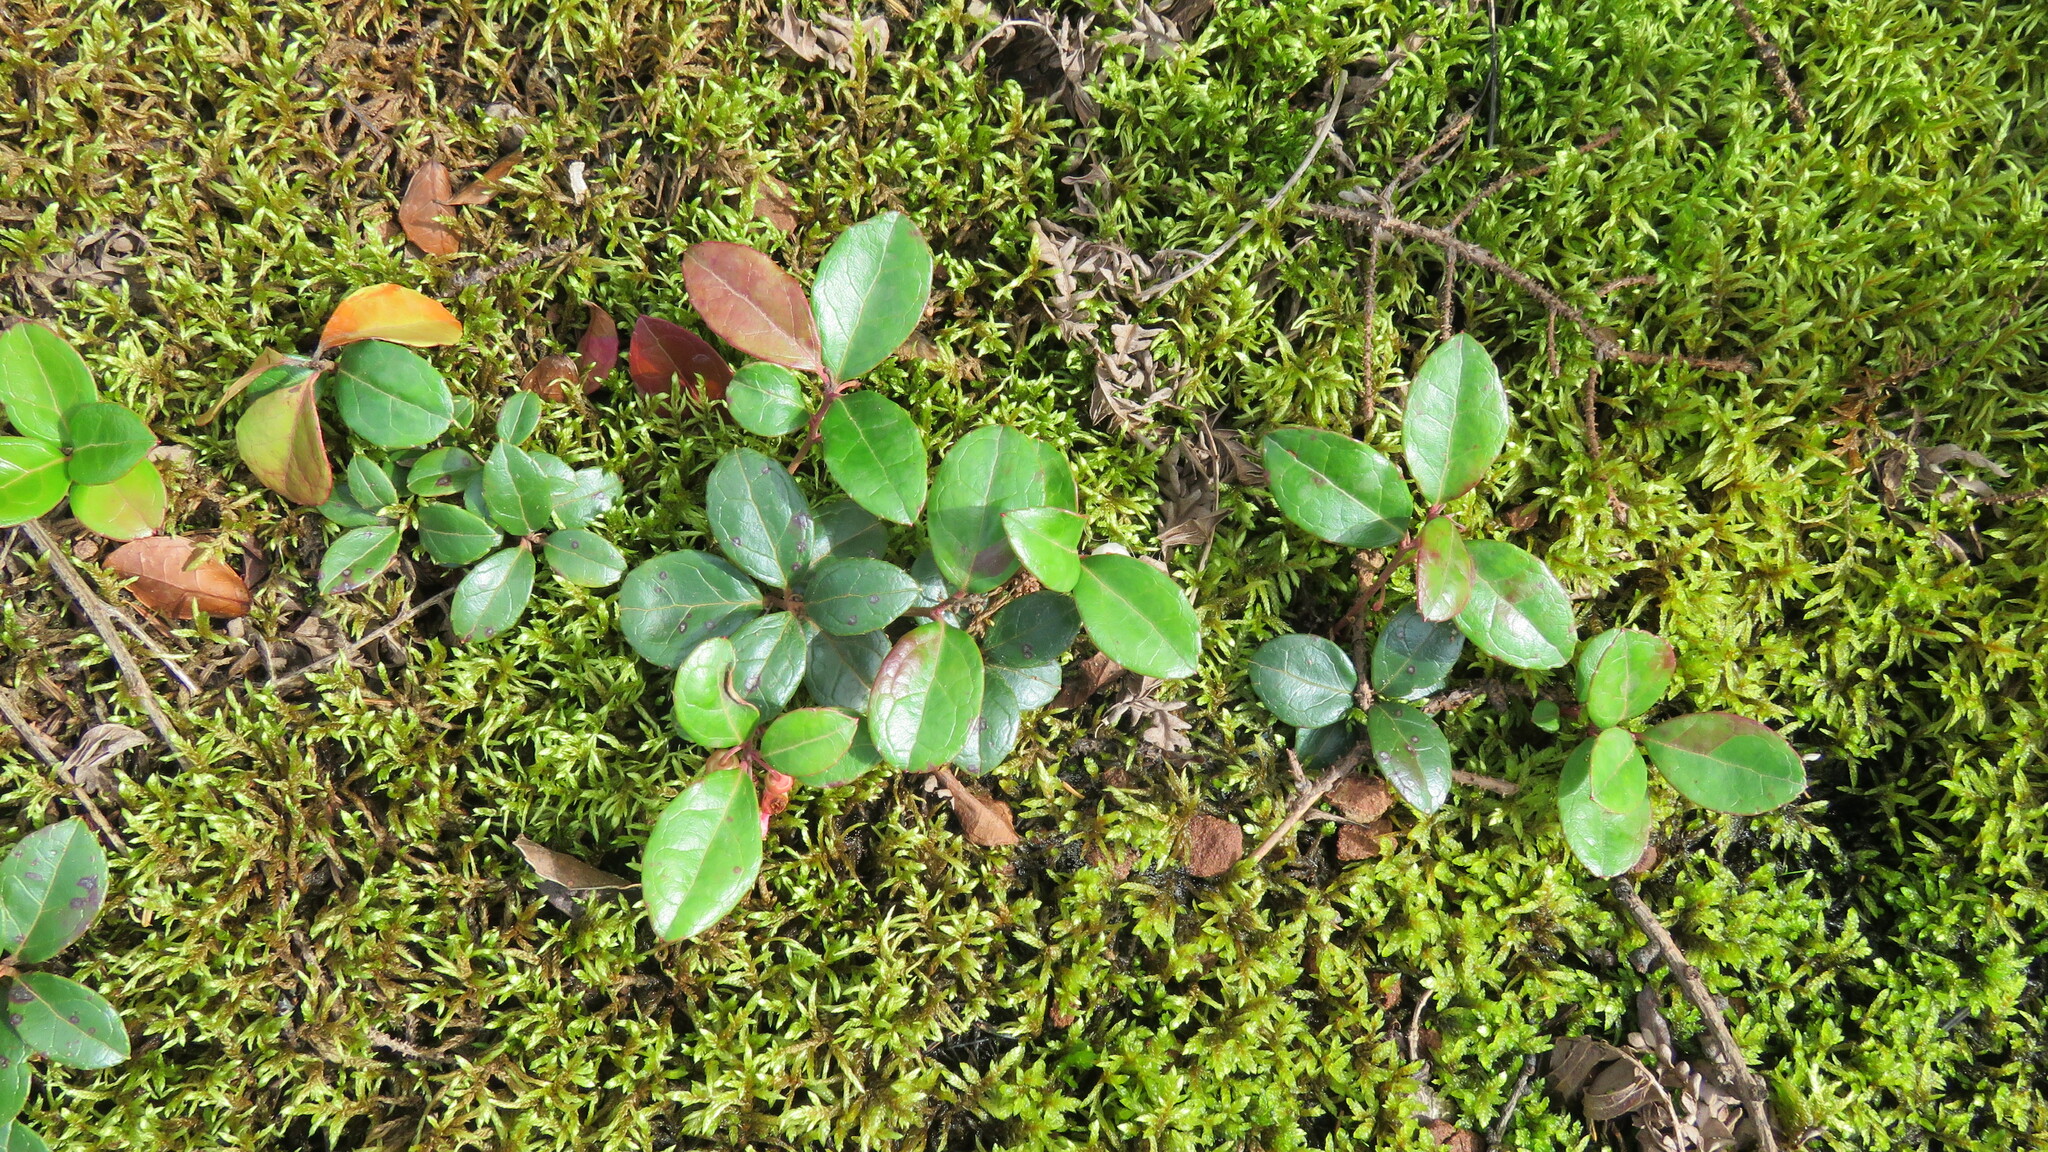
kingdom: Plantae
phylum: Tracheophyta
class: Magnoliopsida
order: Ericales
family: Ericaceae
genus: Gaultheria
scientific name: Gaultheria procumbens
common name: Checkerberry
